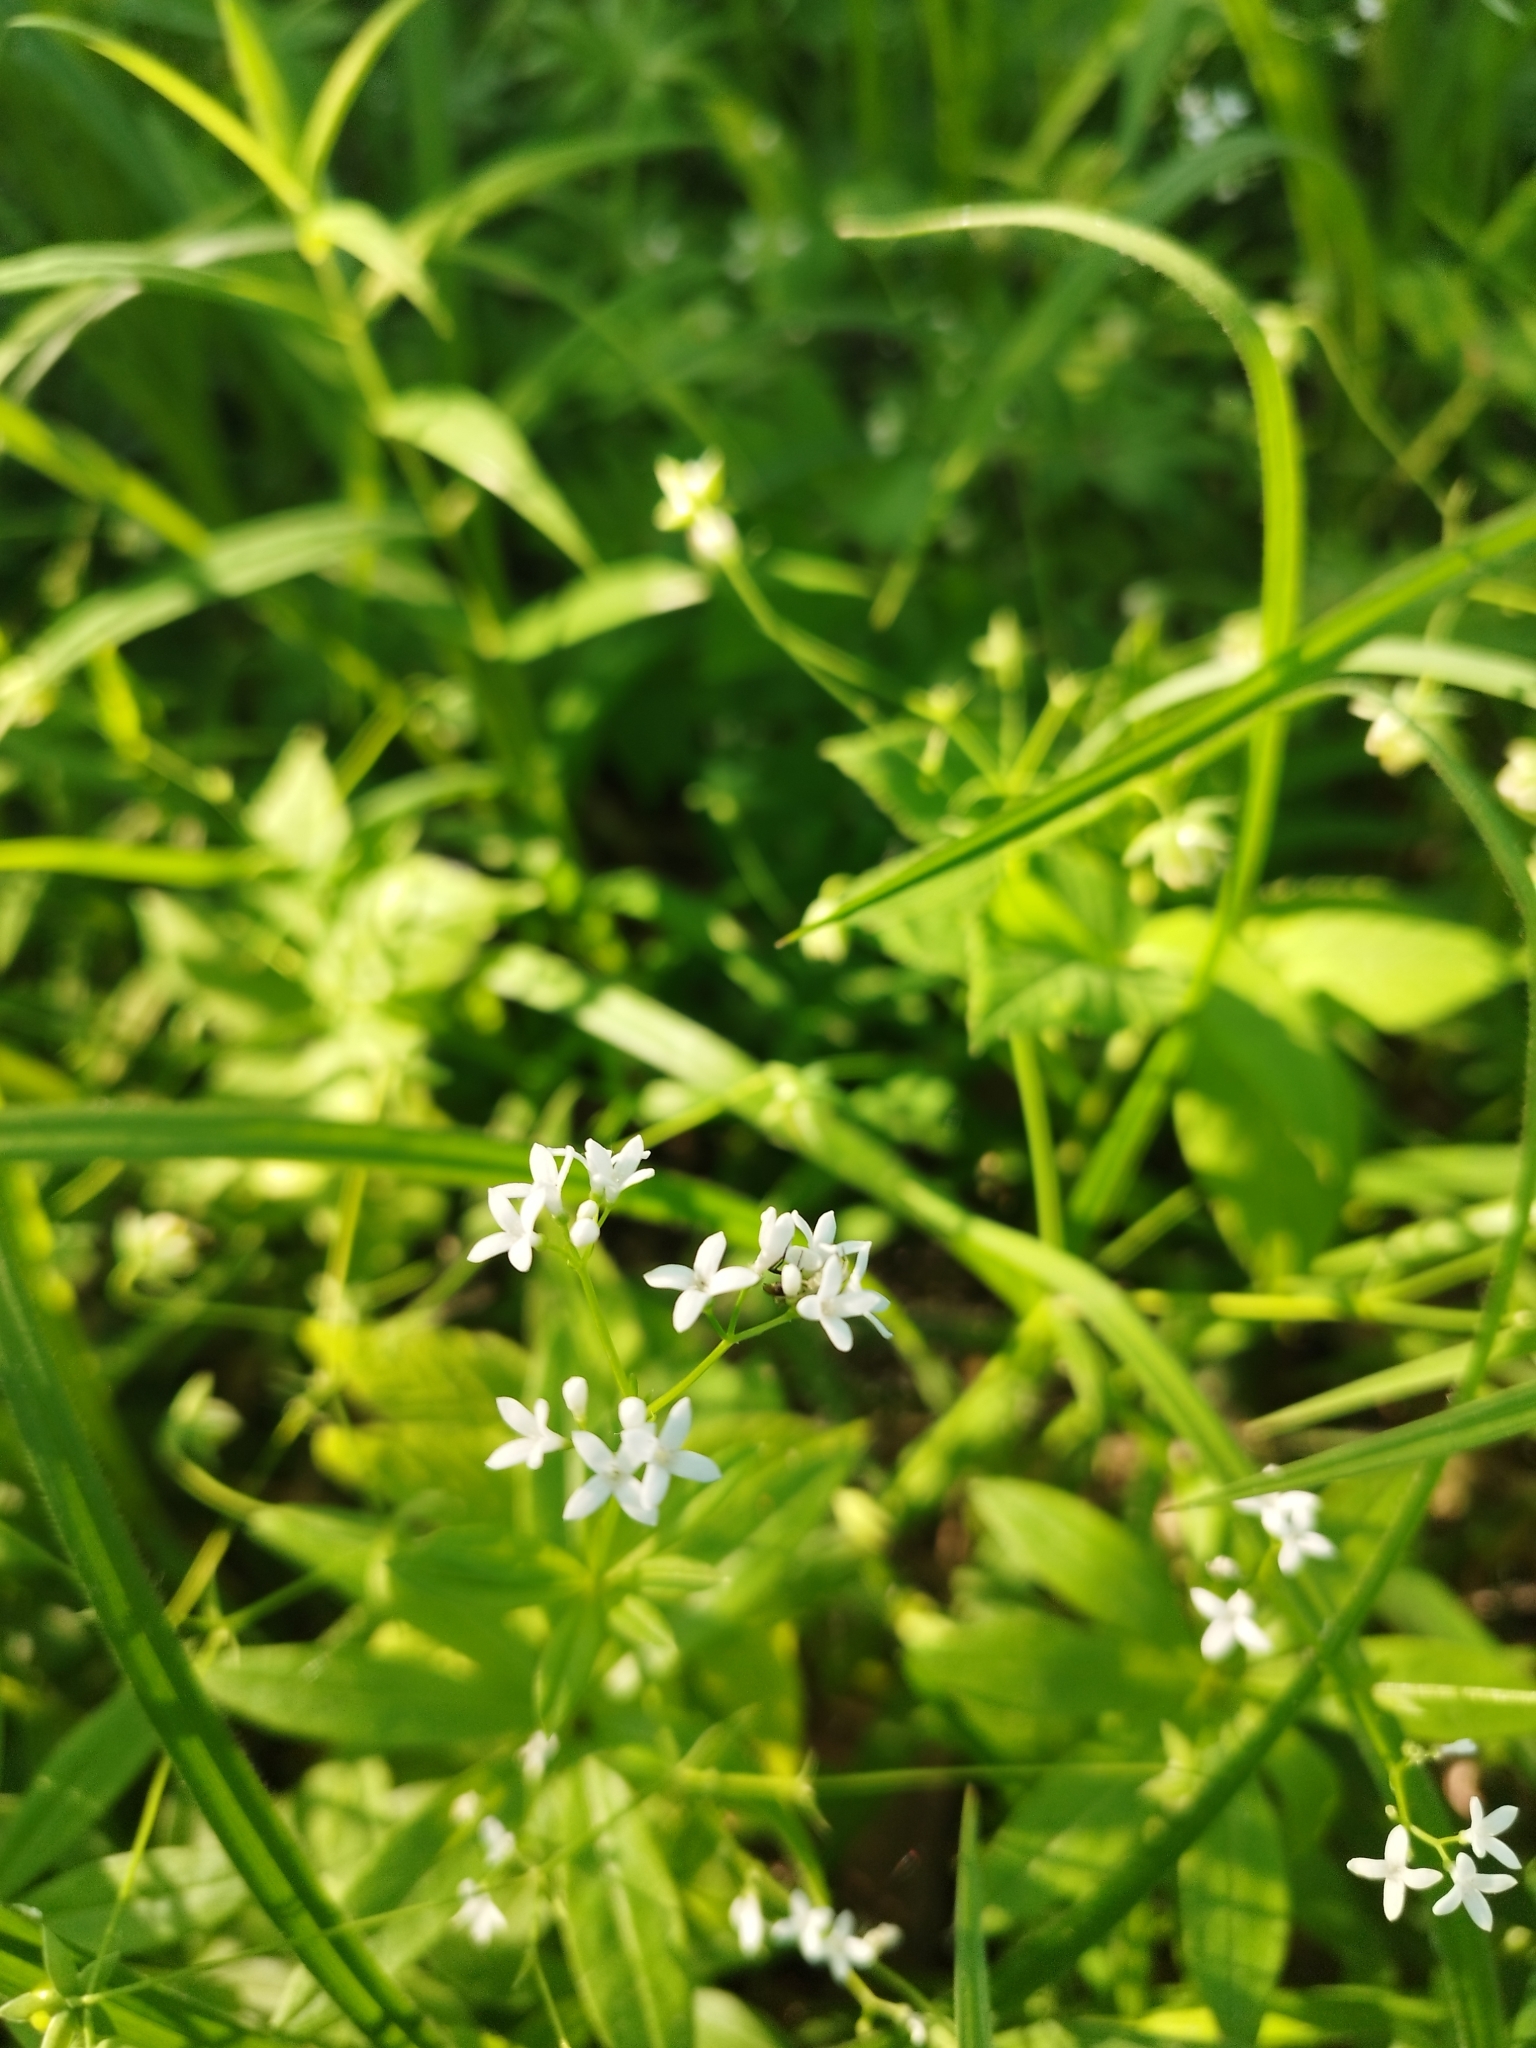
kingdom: Plantae
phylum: Tracheophyta
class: Magnoliopsida
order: Gentianales
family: Rubiaceae
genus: Galium
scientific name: Galium odoratum
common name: Sweet woodruff
